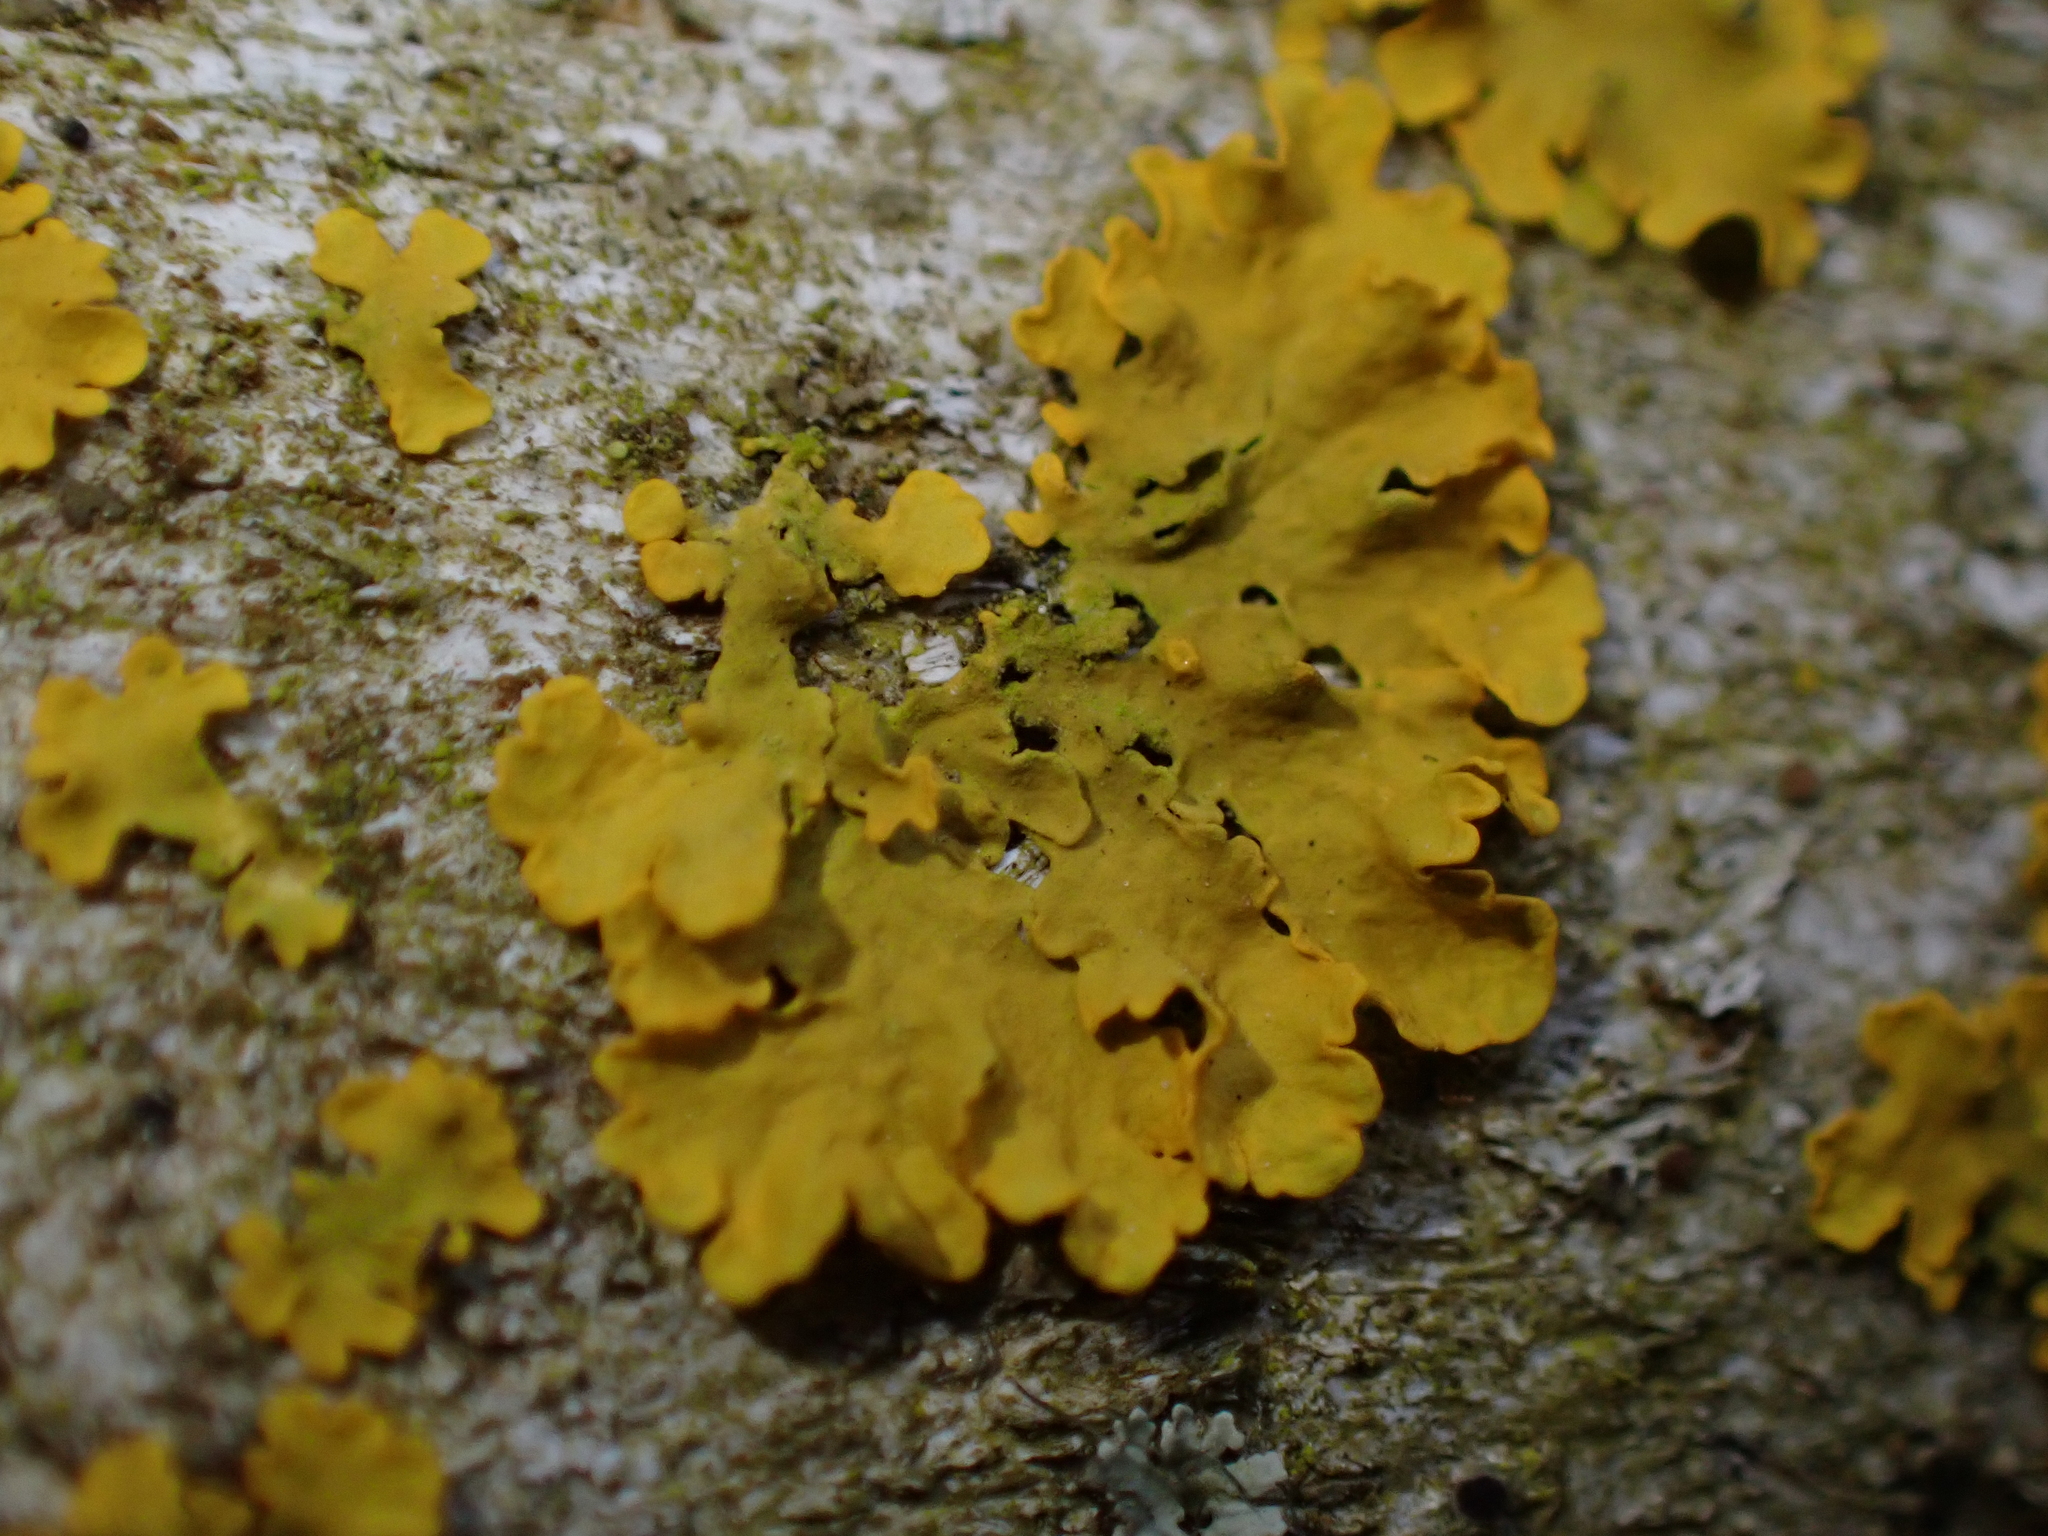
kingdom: Fungi
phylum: Ascomycota
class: Lecanoromycetes
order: Teloschistales
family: Teloschistaceae
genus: Xanthoria
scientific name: Xanthoria parietina
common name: Common orange lichen
